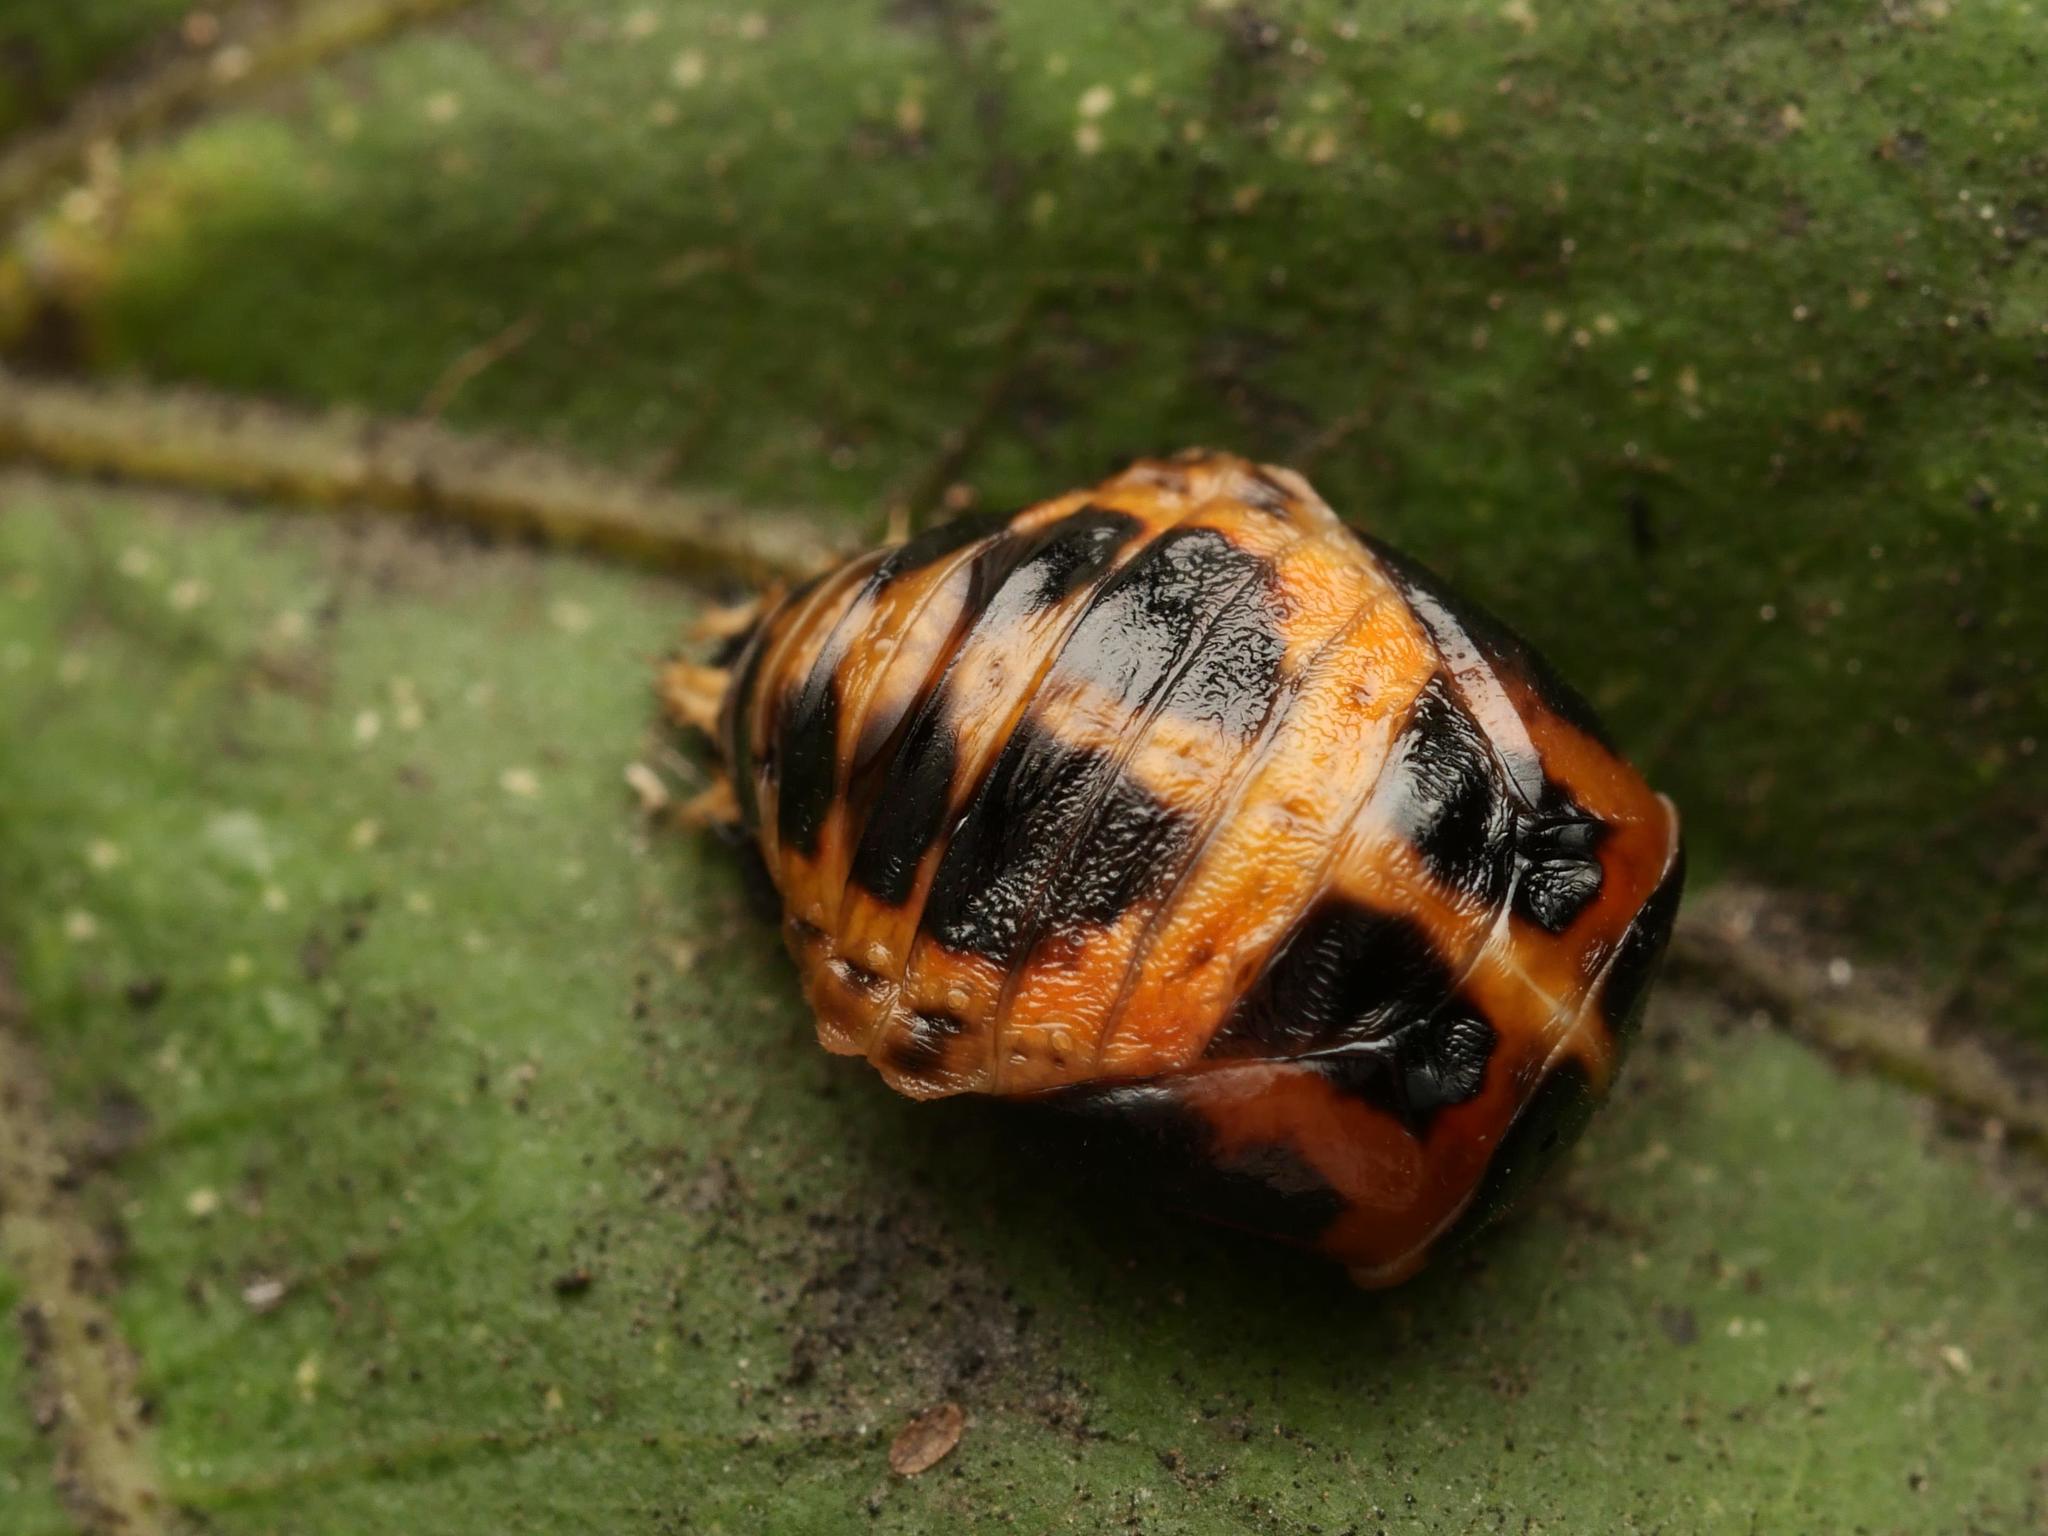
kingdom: Animalia
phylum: Arthropoda
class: Insecta
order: Coleoptera
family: Coccinellidae
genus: Harmonia
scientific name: Harmonia axyridis
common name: Harlequin ladybird
